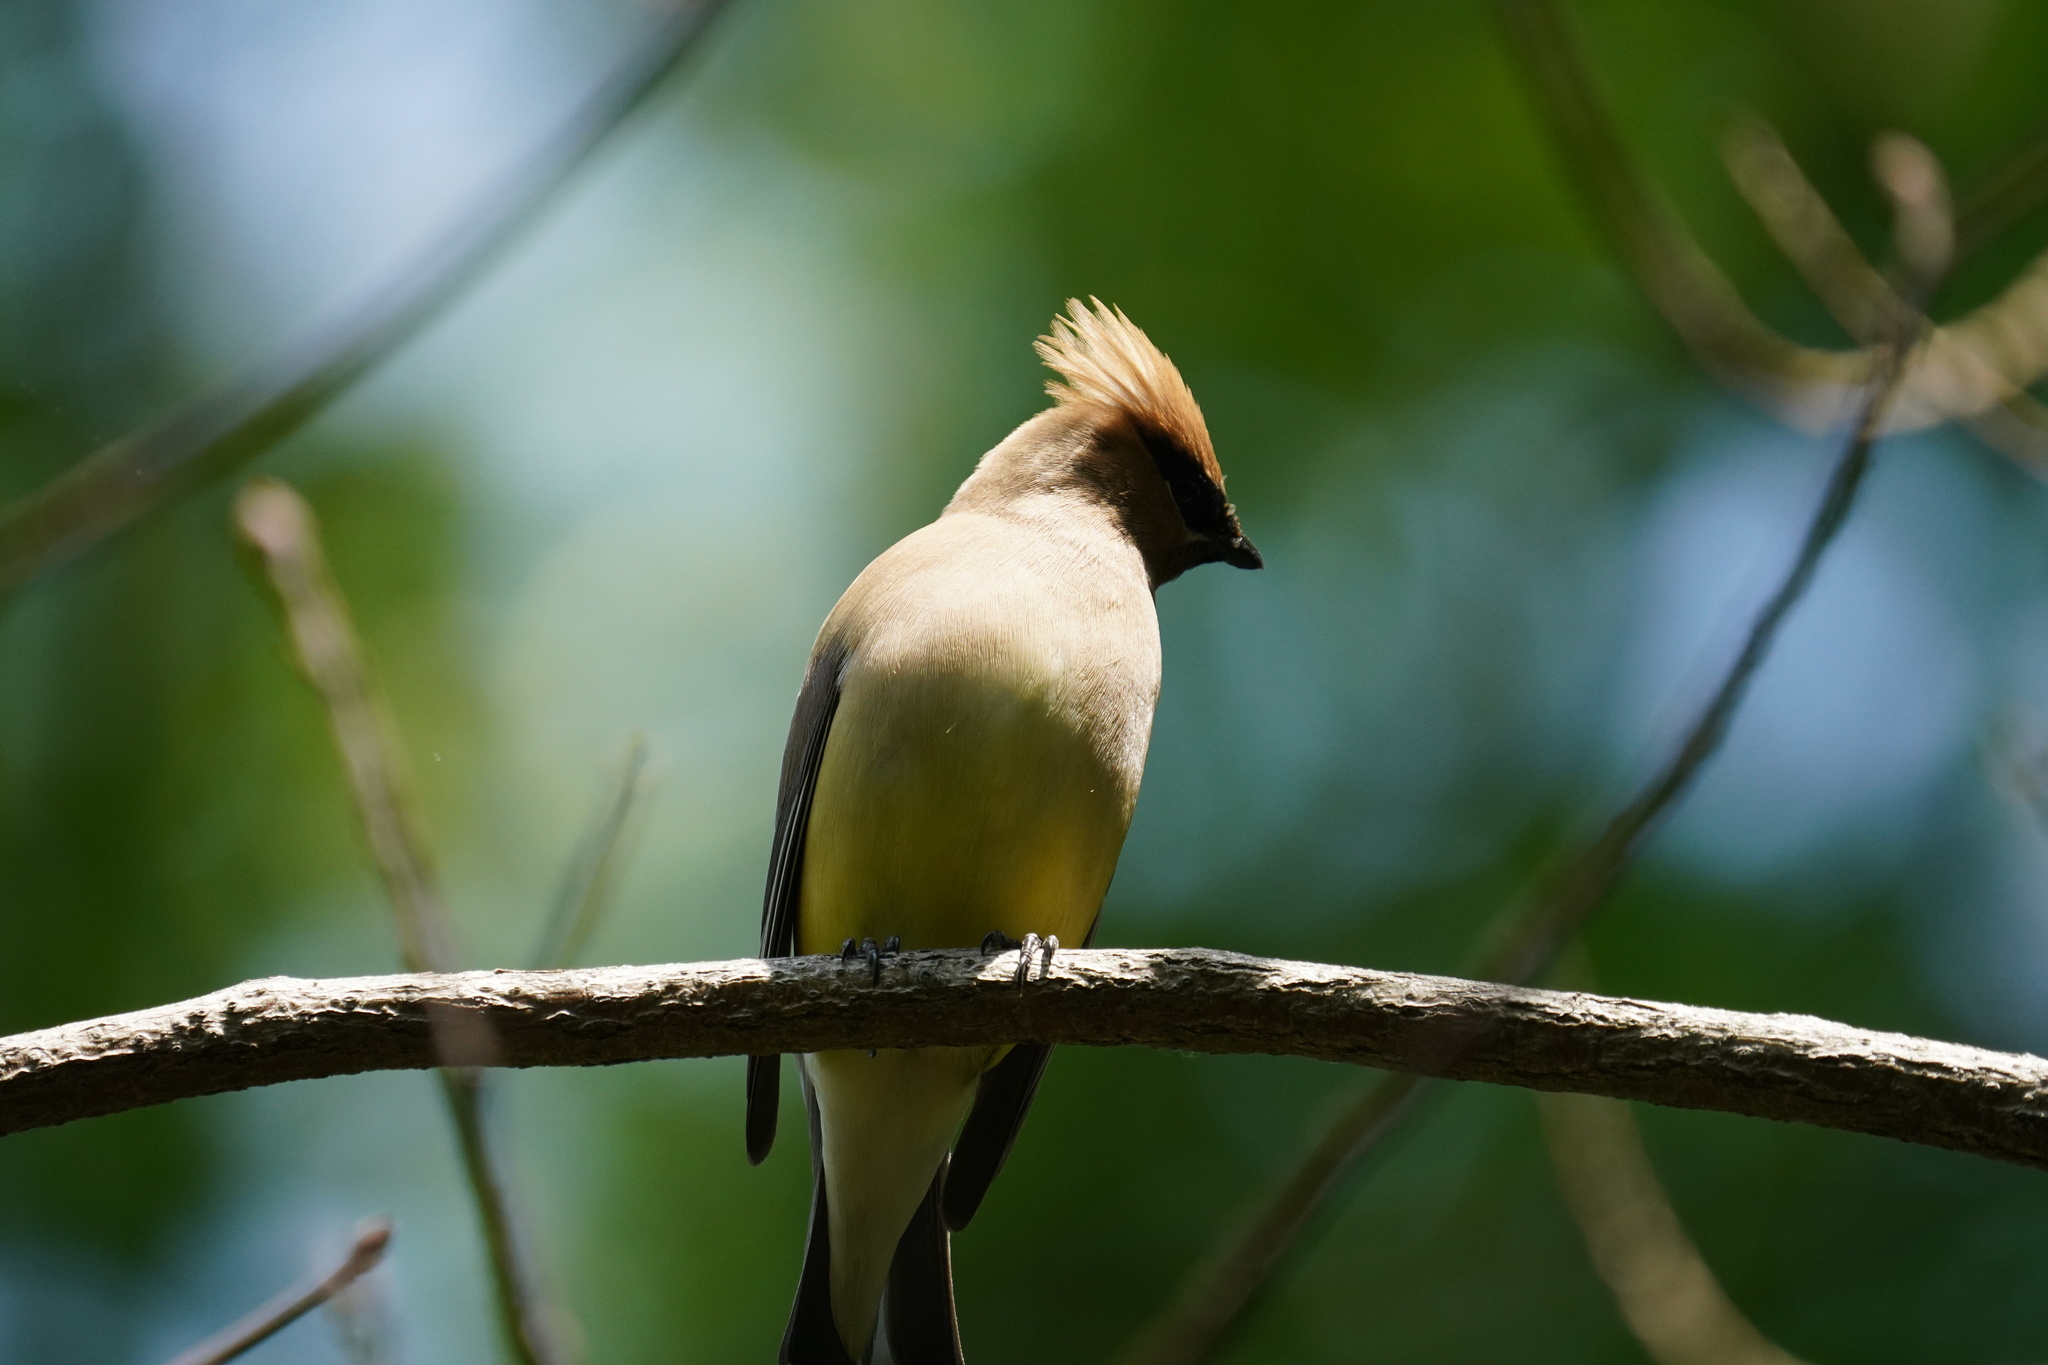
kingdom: Animalia
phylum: Chordata
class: Aves
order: Passeriformes
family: Bombycillidae
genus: Bombycilla
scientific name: Bombycilla cedrorum
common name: Cedar waxwing
